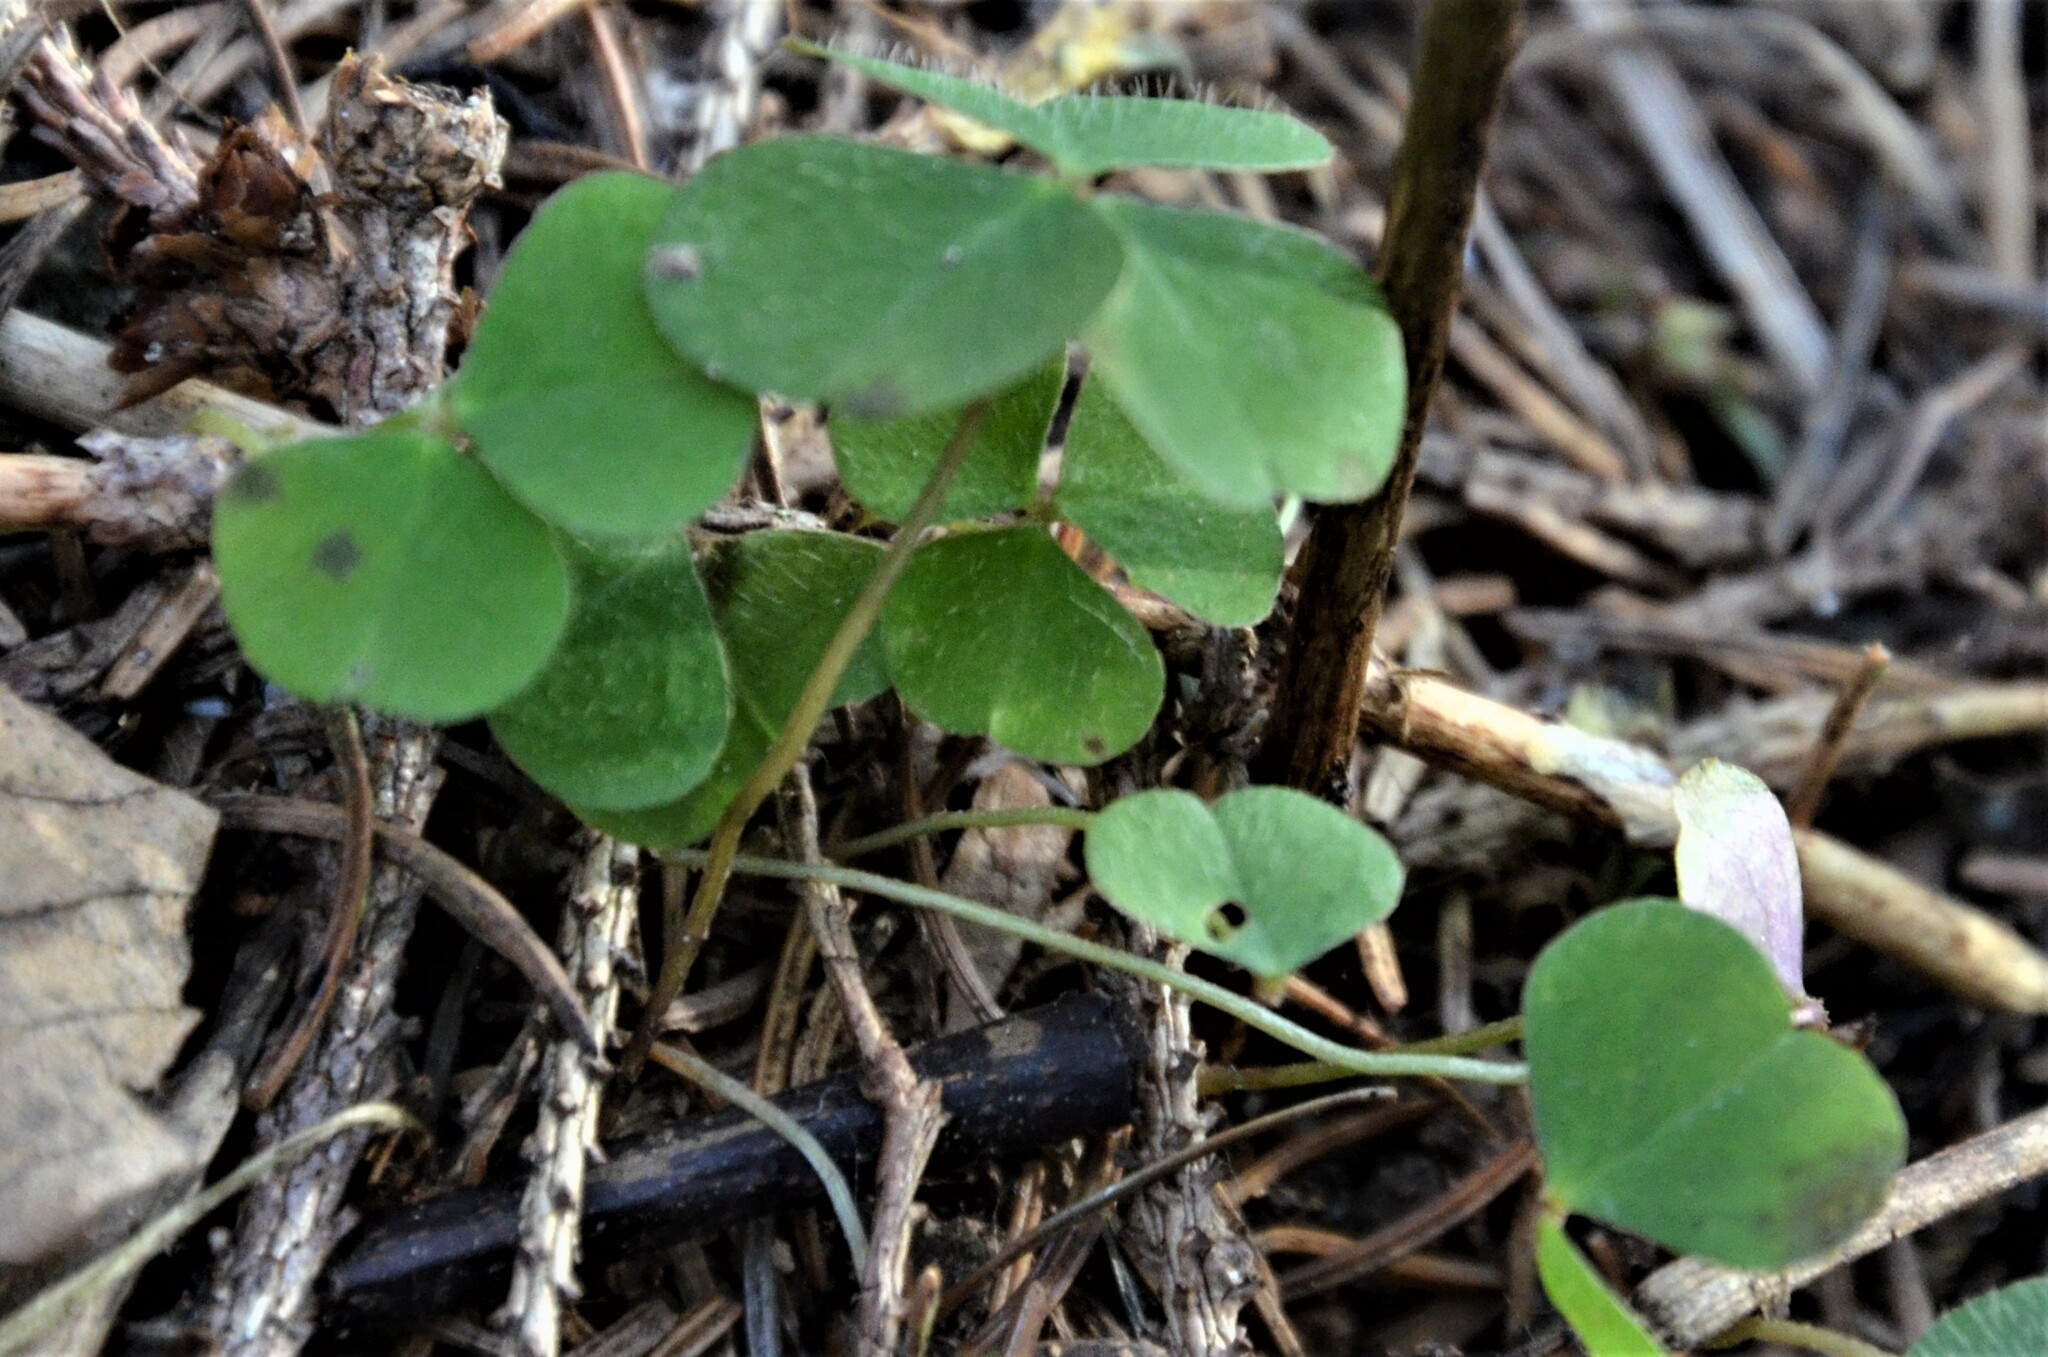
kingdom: Plantae
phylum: Tracheophyta
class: Magnoliopsida
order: Oxalidales
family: Oxalidaceae
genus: Oxalis
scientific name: Oxalis acetosella
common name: Wood-sorrel
